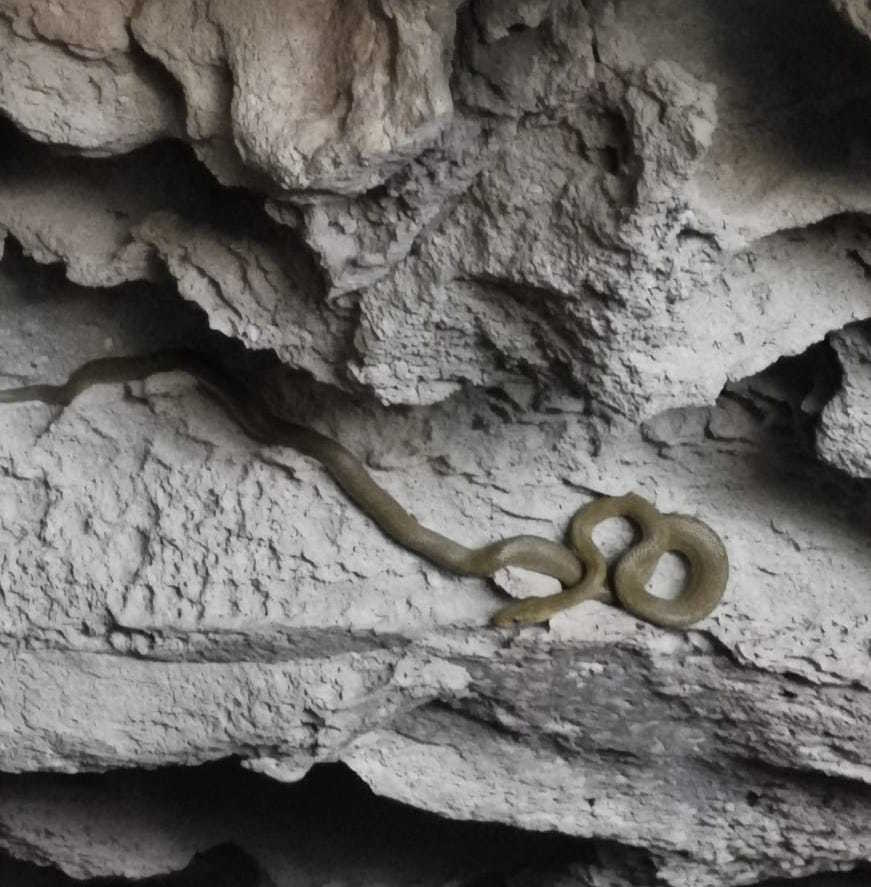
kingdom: Animalia
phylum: Chordata
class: Squamata
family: Colubridae
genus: Senticolis
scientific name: Senticolis triaspis
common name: Green rat snake
